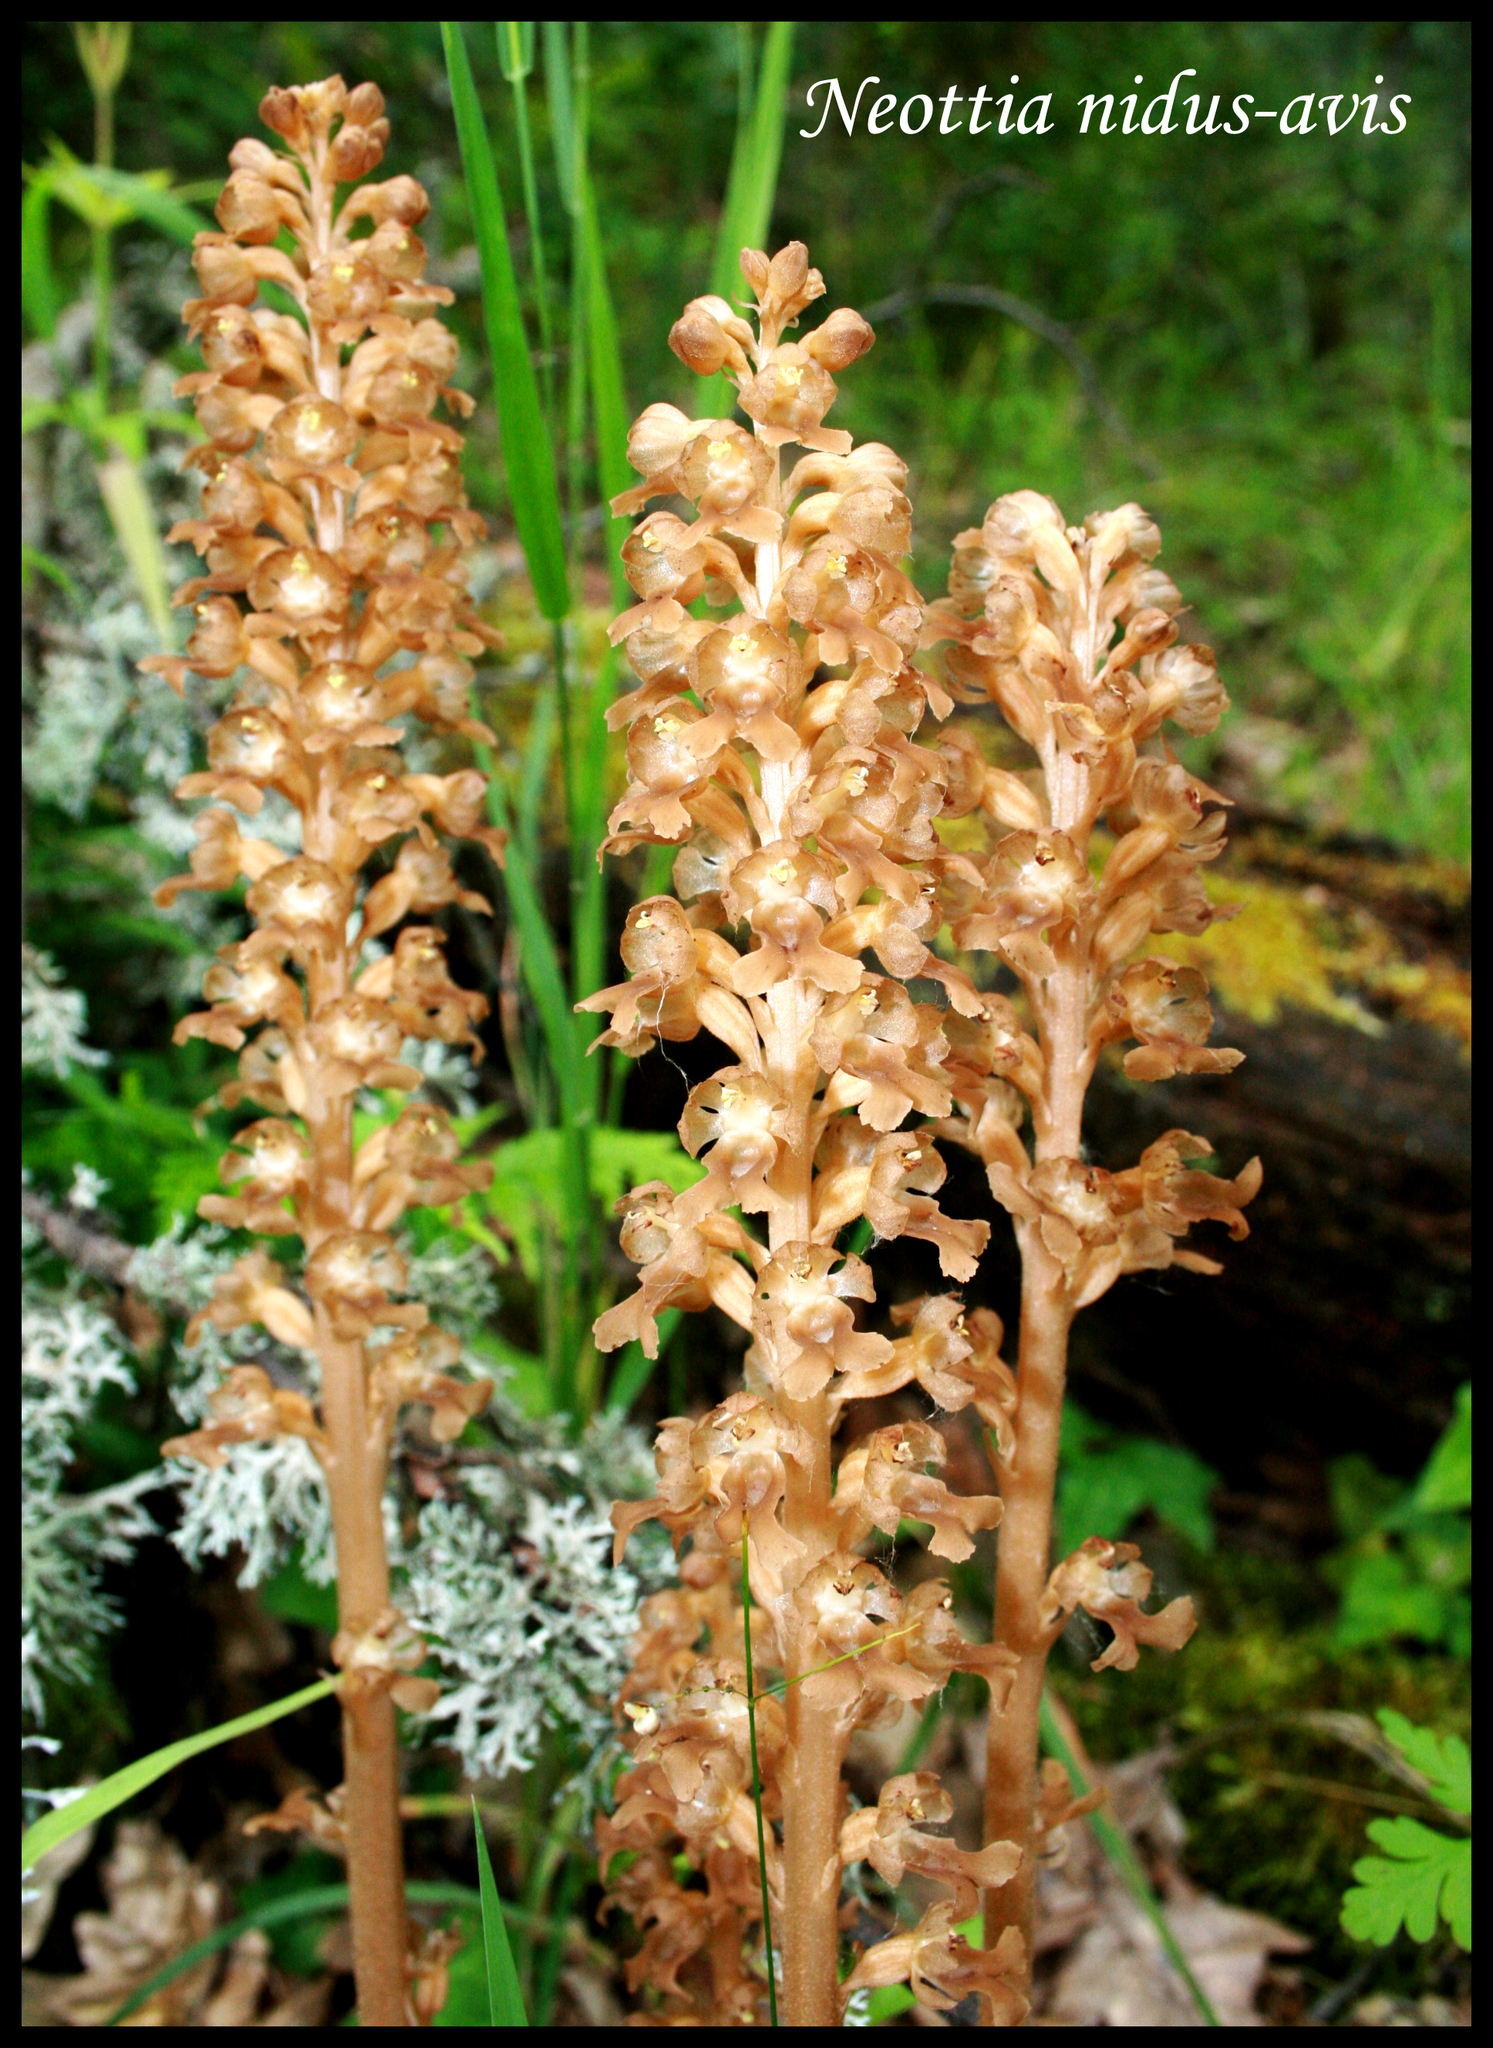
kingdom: Plantae
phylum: Tracheophyta
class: Liliopsida
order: Asparagales
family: Orchidaceae
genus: Neottia
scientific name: Neottia nidus-avis
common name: Bird's-nest orchid
